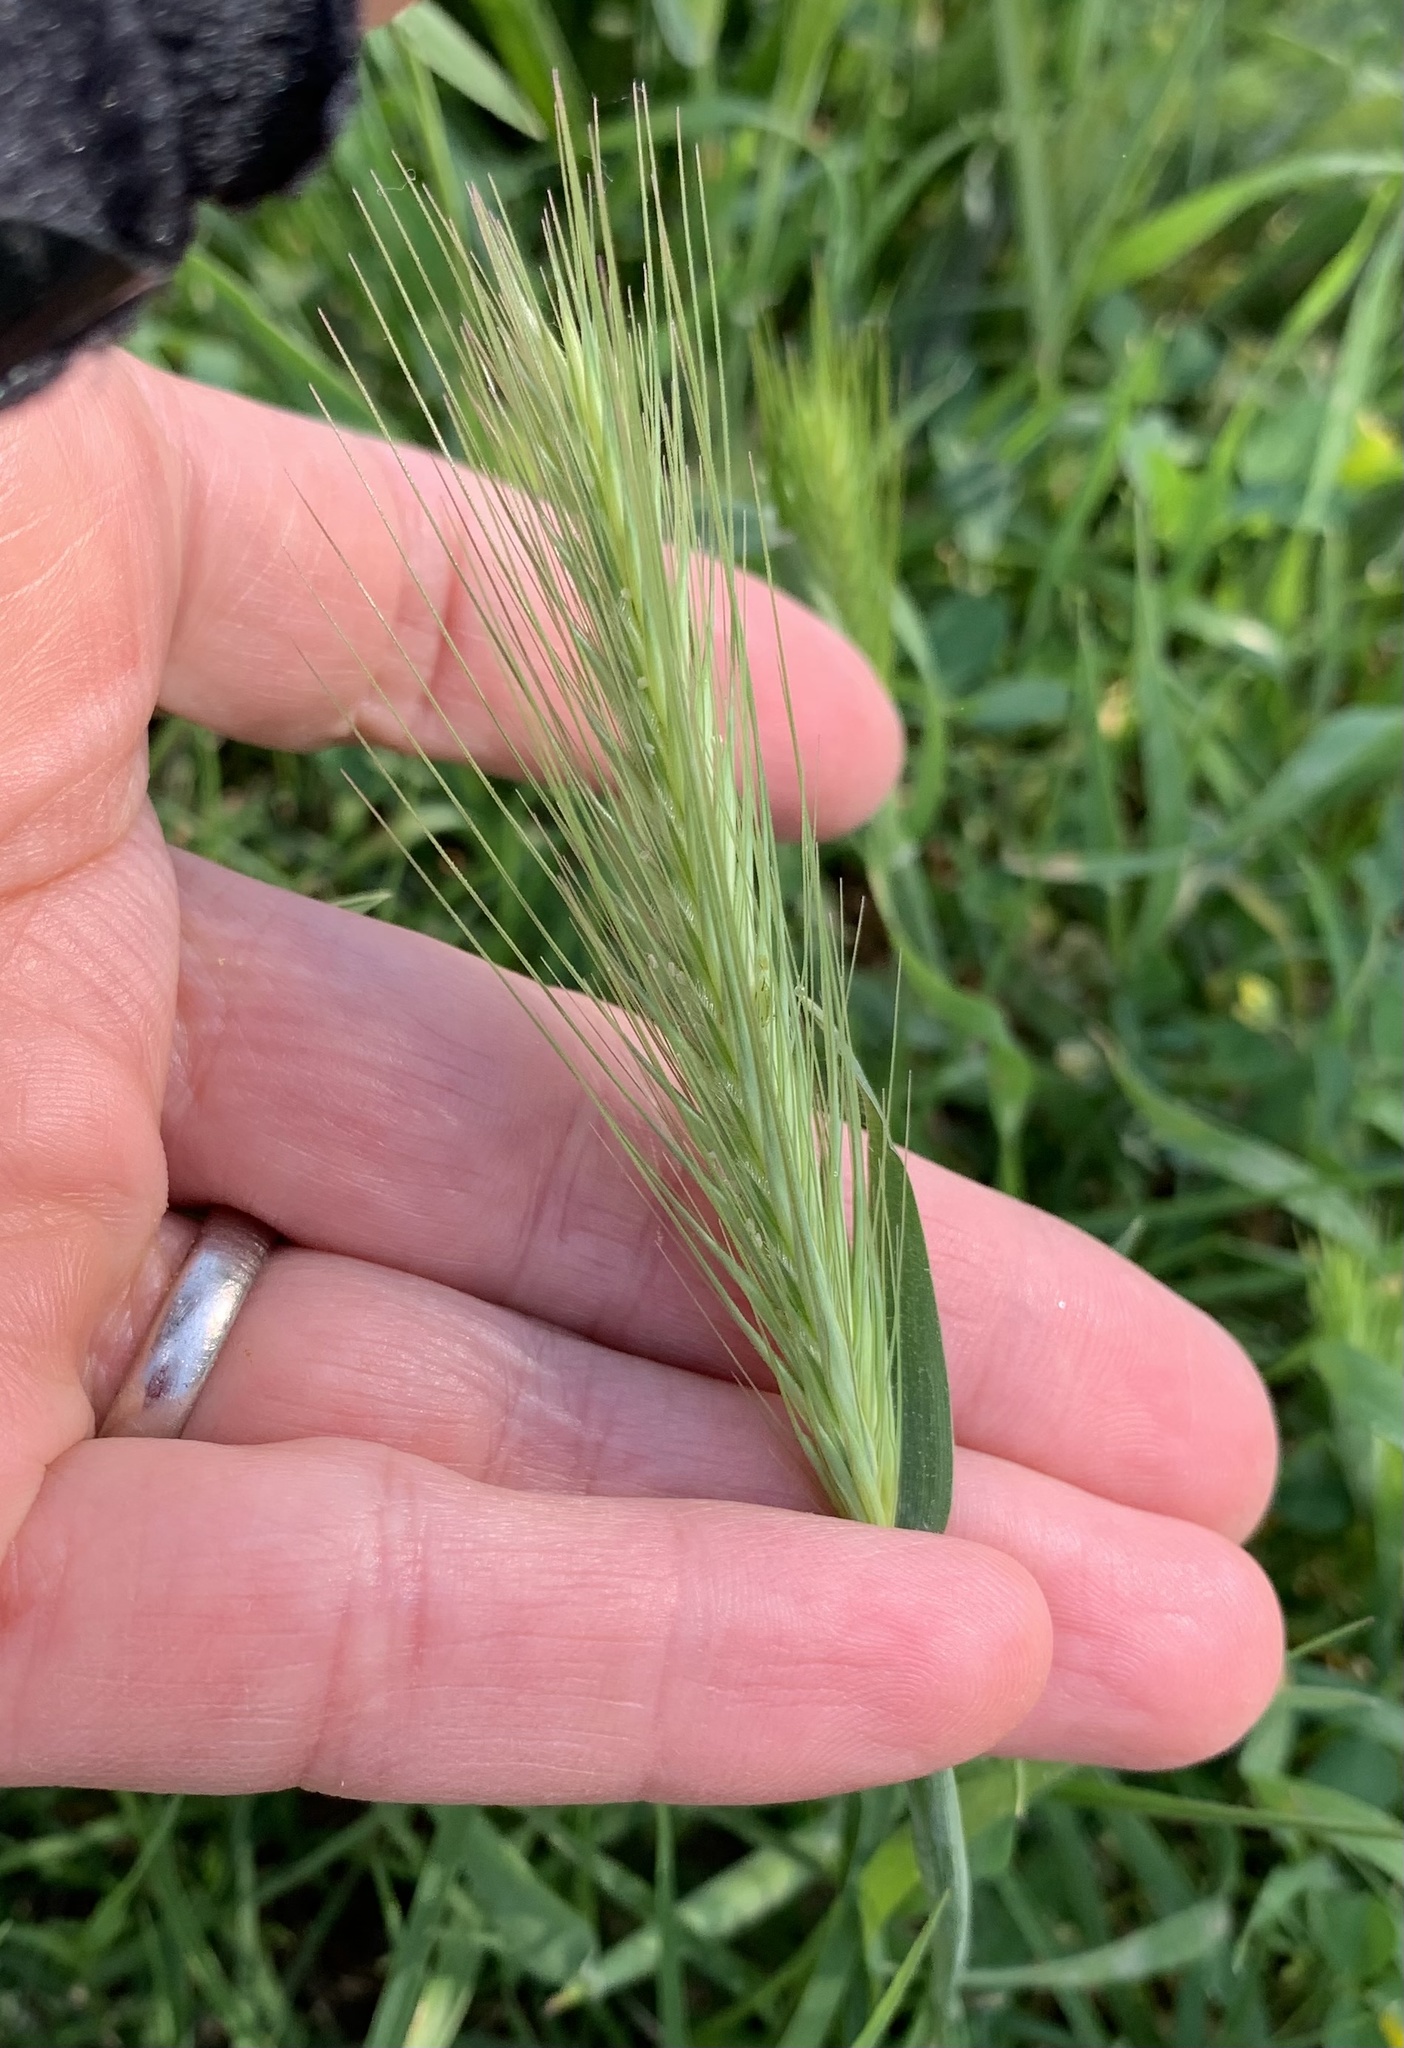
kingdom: Plantae
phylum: Tracheophyta
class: Liliopsida
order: Poales
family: Poaceae
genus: Hordeum
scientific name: Hordeum murinum
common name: Wall barley
